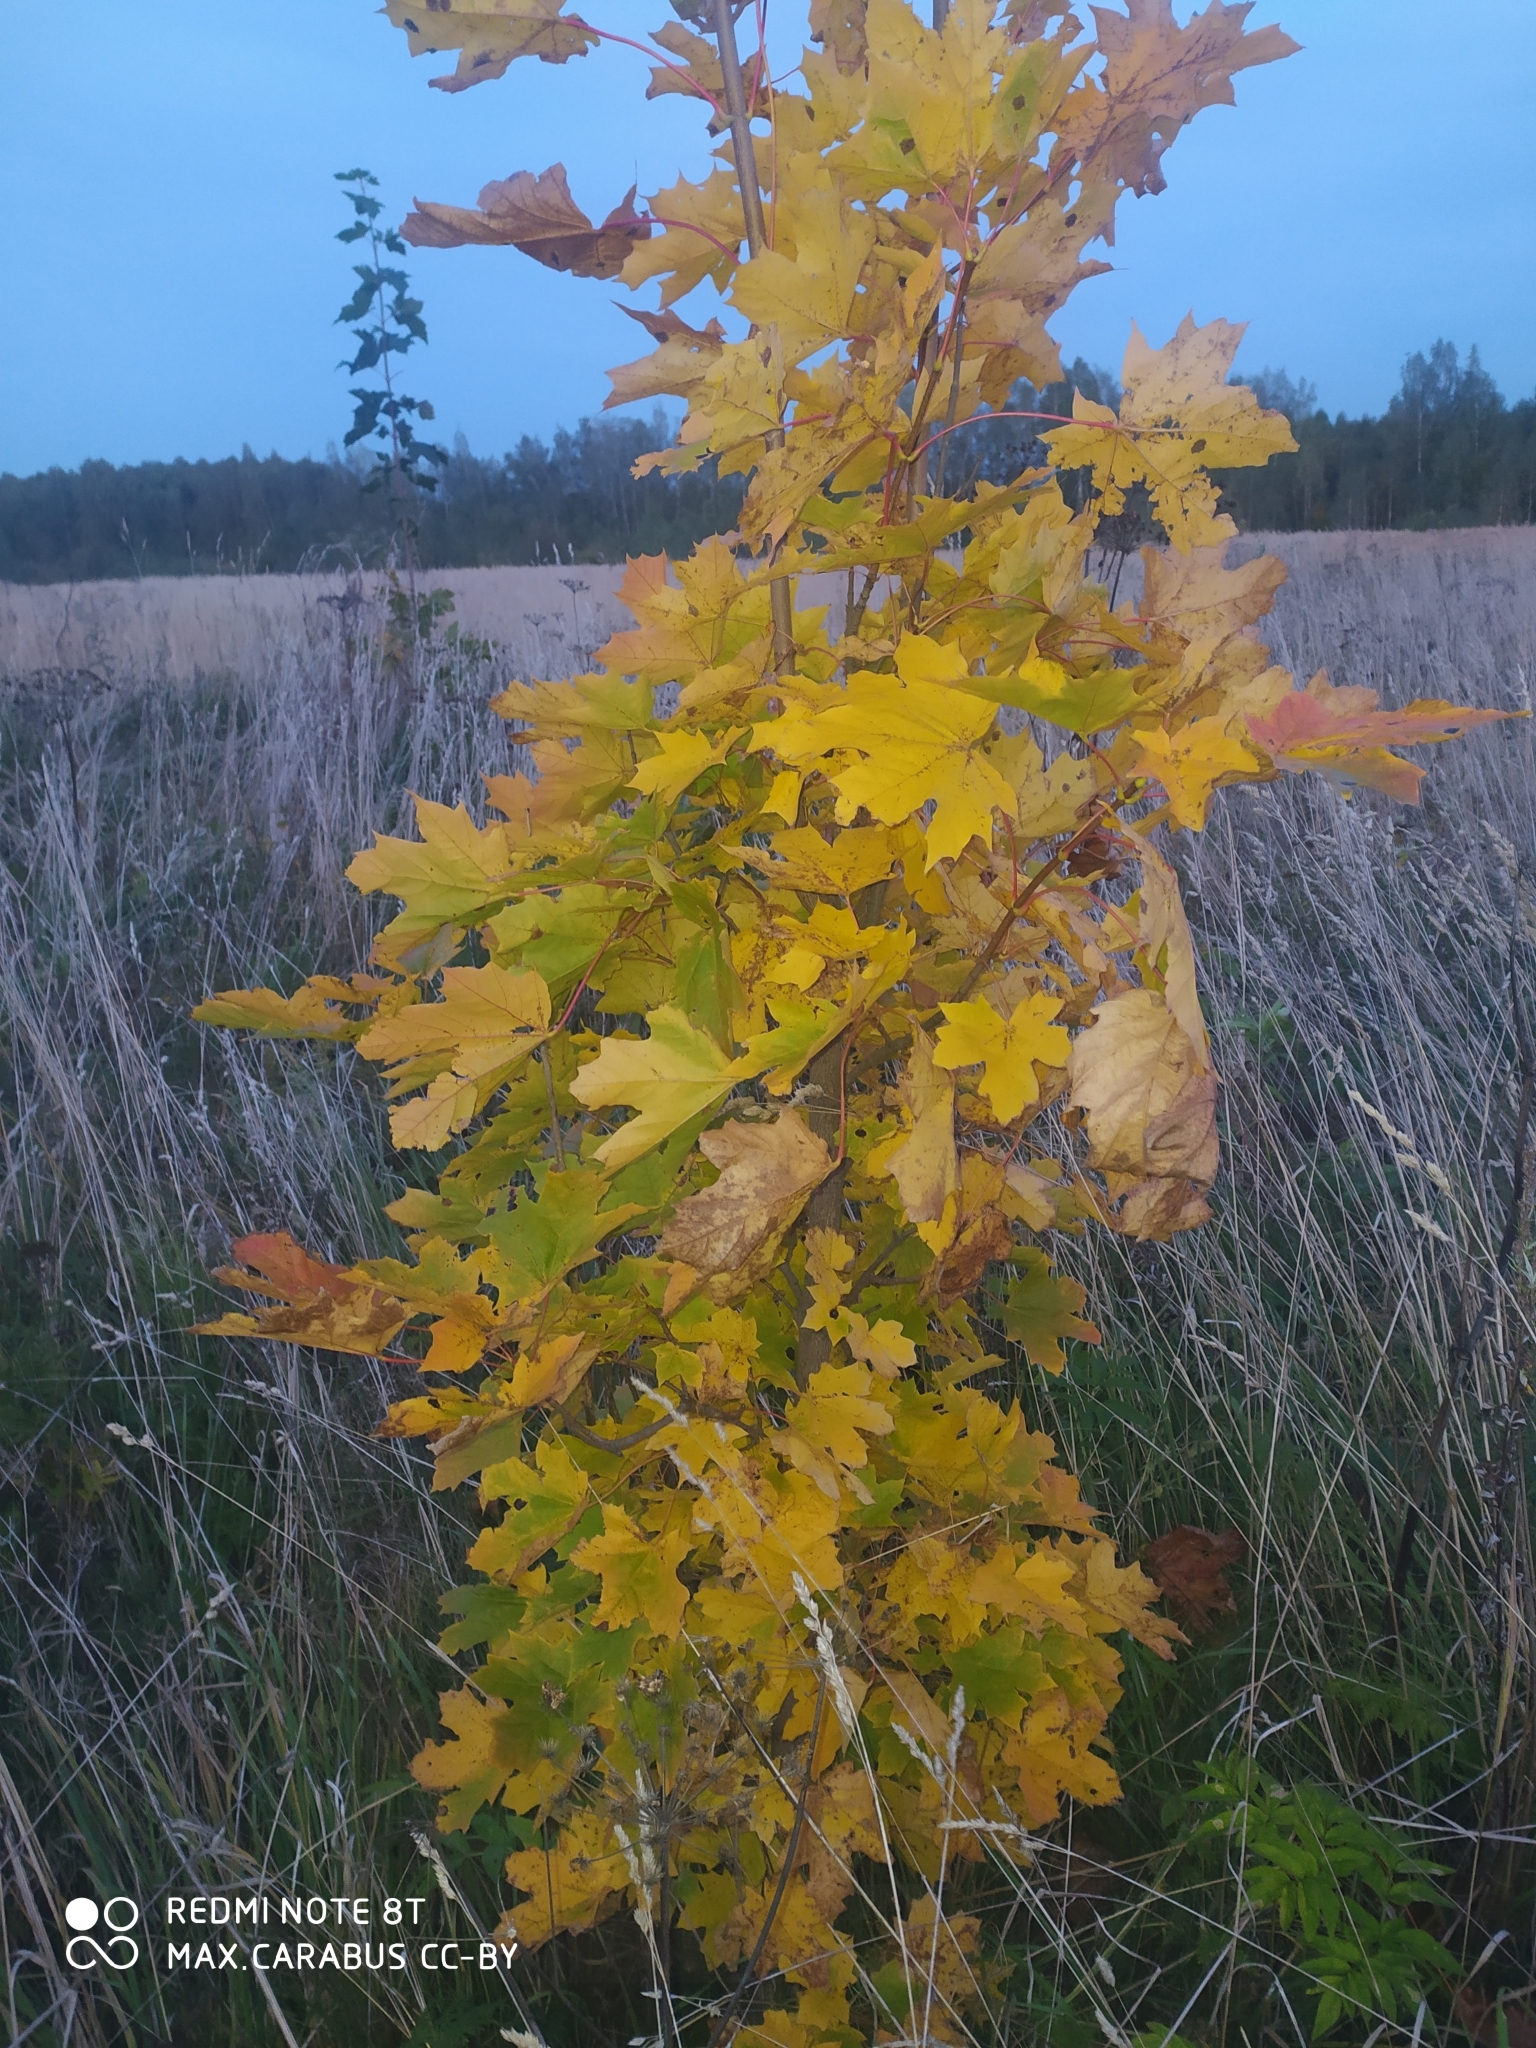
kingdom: Plantae
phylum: Tracheophyta
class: Magnoliopsida
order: Sapindales
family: Sapindaceae
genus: Acer
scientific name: Acer platanoides
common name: Norway maple
